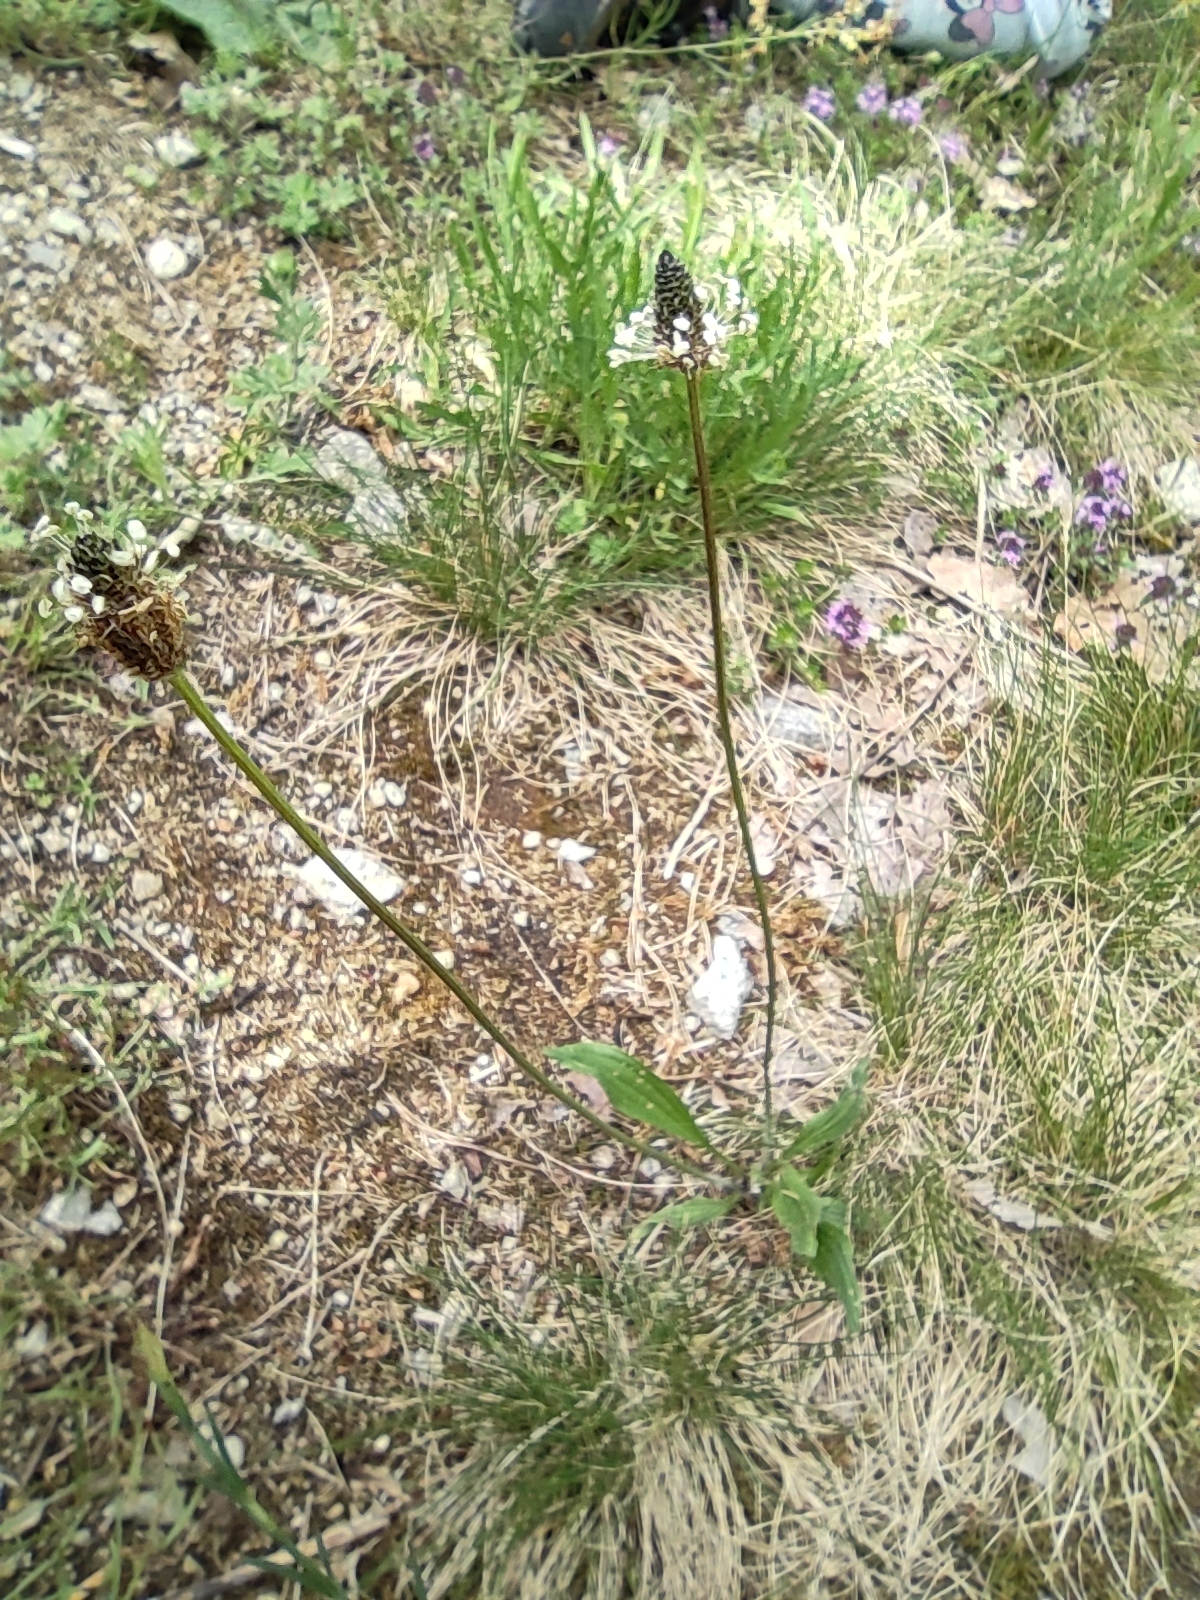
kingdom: Plantae
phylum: Tracheophyta
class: Magnoliopsida
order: Lamiales
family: Plantaginaceae
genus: Plantago
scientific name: Plantago lanceolata
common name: Ribwort plantain
